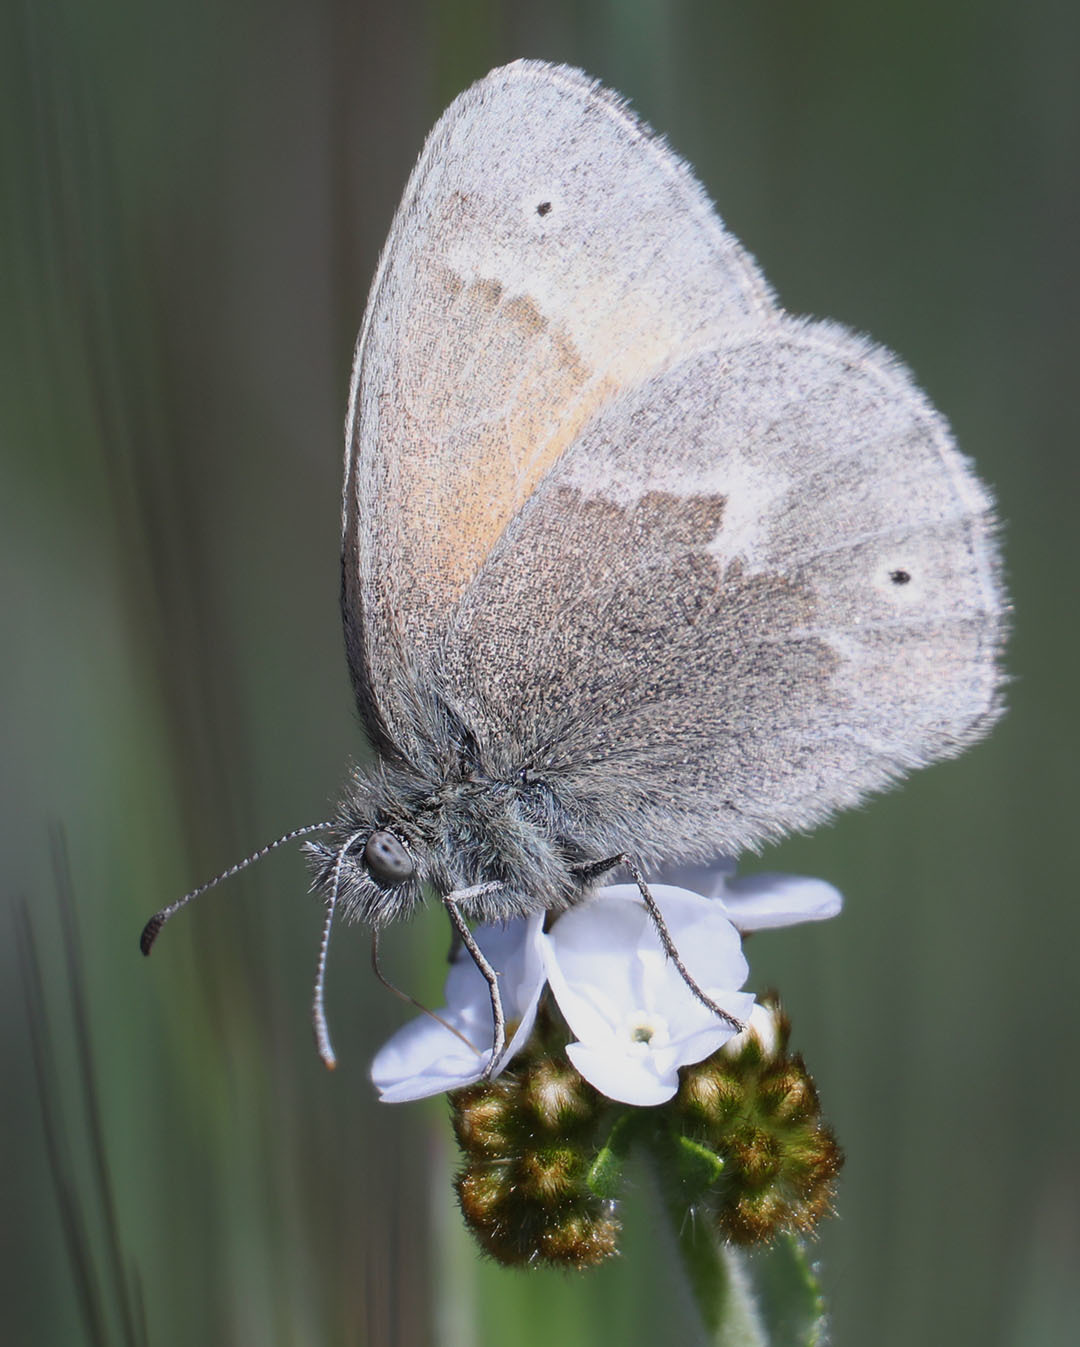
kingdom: Animalia
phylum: Arthropoda
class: Insecta
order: Lepidoptera
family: Nymphalidae
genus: Coenonympha
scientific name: Coenonympha california
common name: Common ringlet
